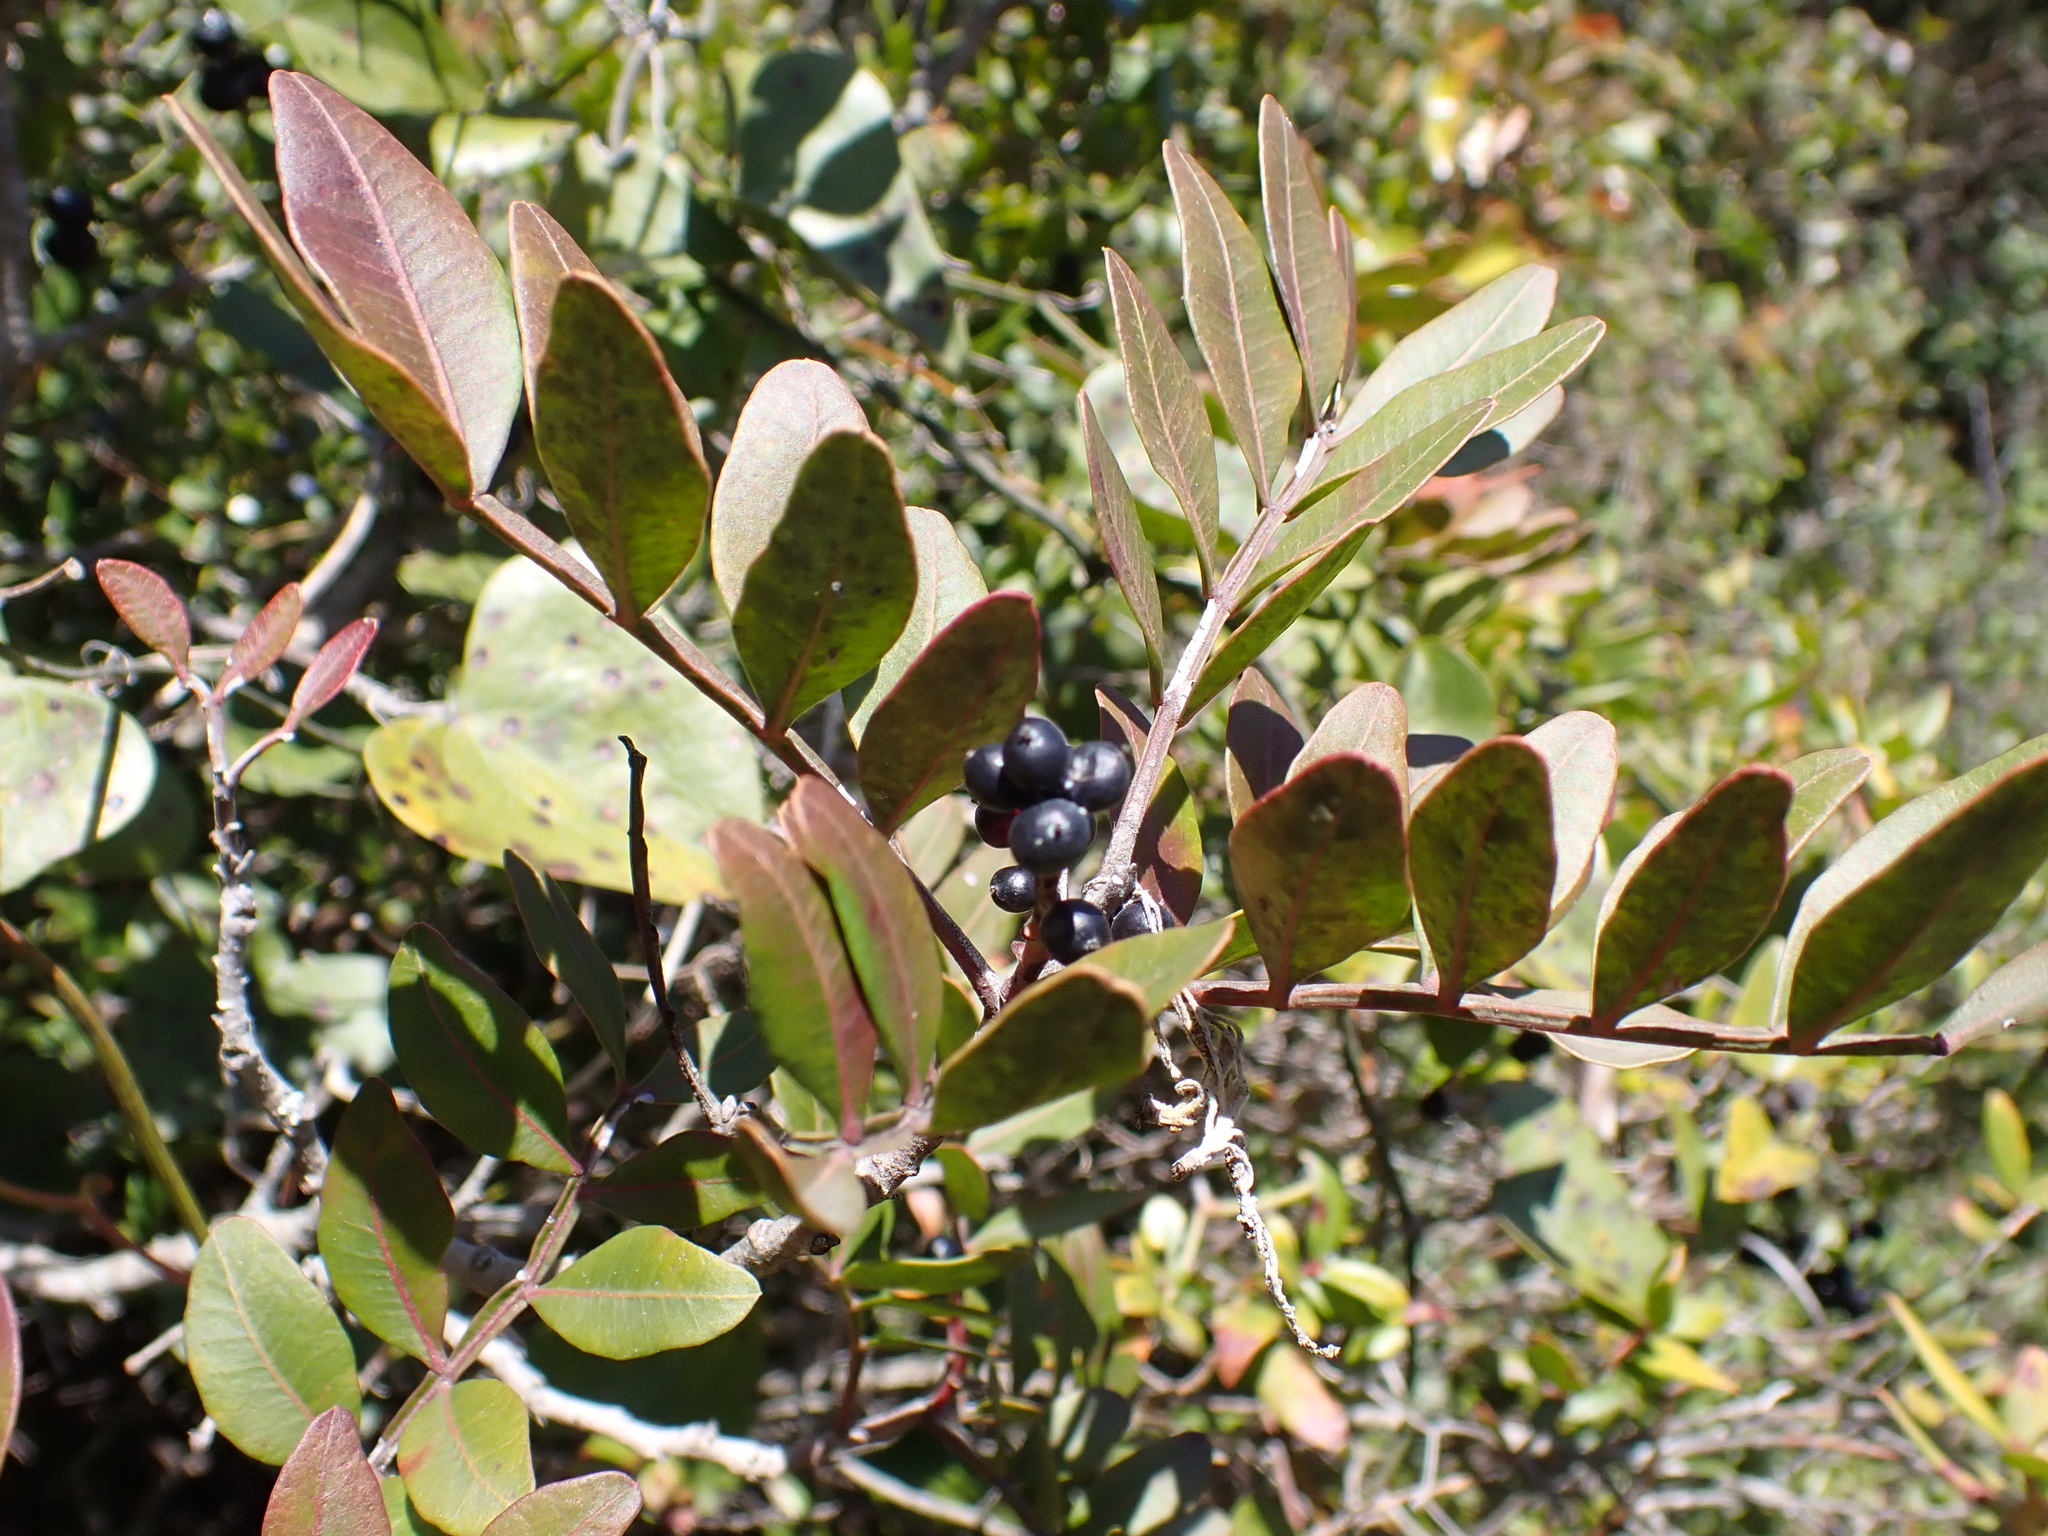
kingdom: Plantae
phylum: Tracheophyta
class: Magnoliopsida
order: Sapindales
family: Anacardiaceae
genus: Pistacia
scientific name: Pistacia lentiscus
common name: Lentisk
